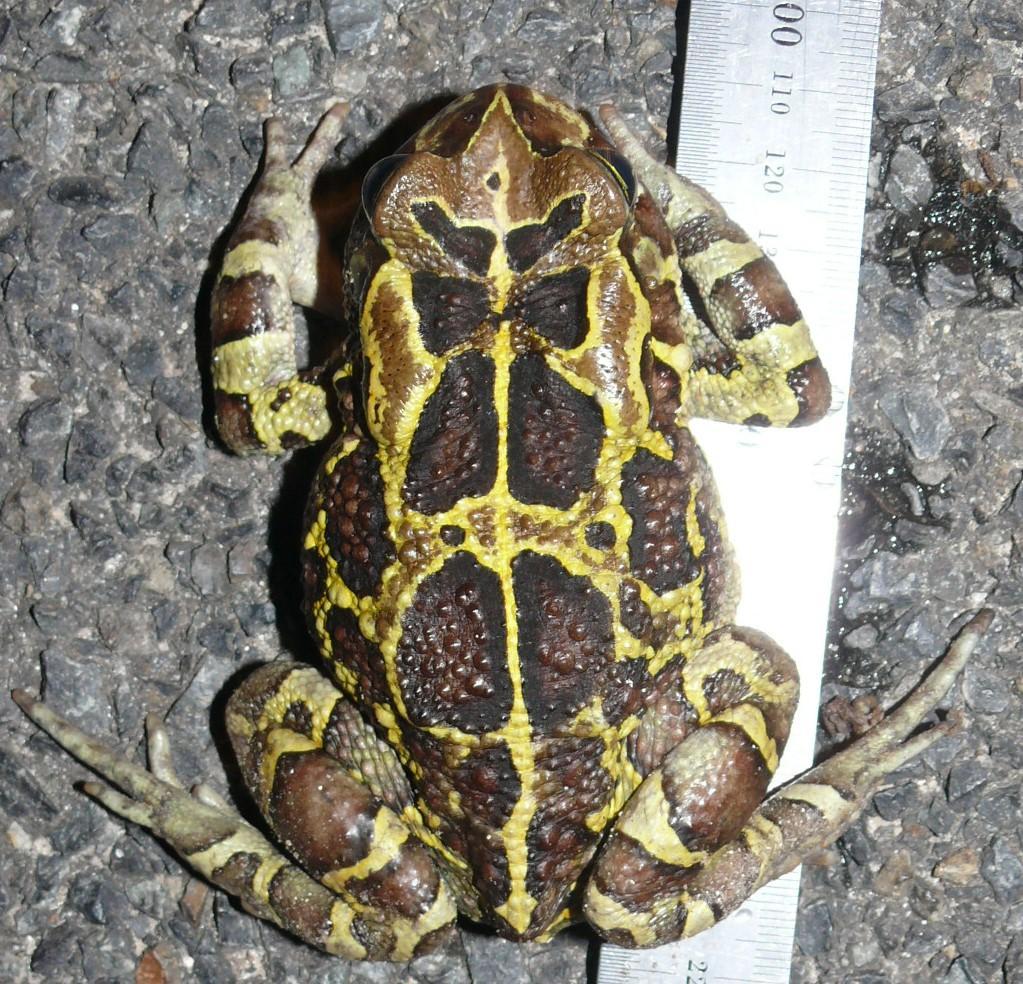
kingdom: Animalia
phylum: Chordata
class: Amphibia
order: Anura
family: Bufonidae
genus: Sclerophrys
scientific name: Sclerophrys pantherina
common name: Panther toad
